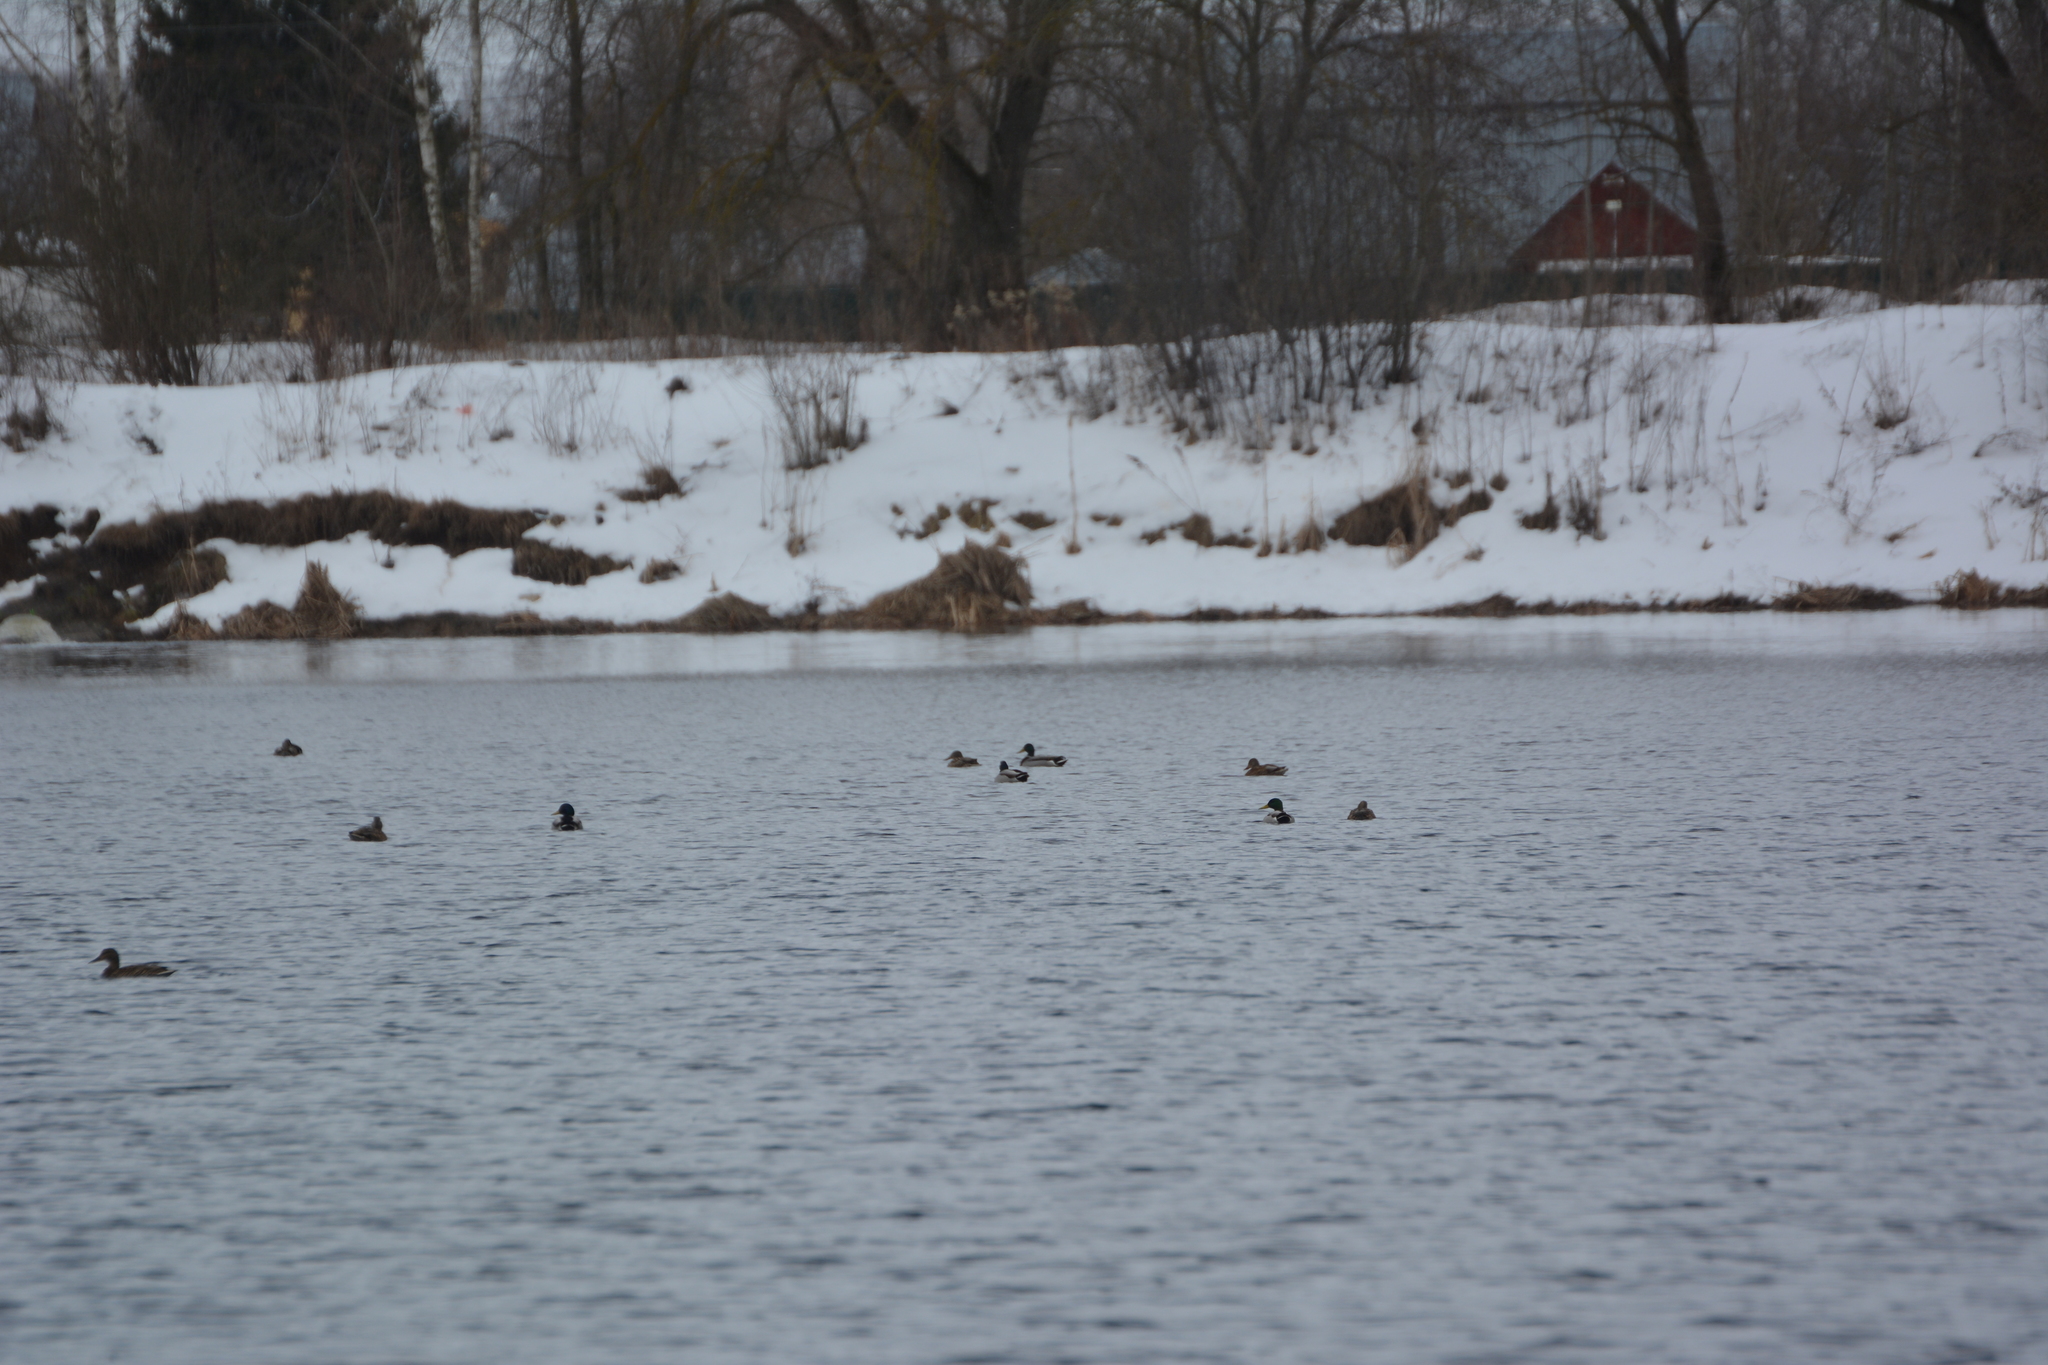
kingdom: Animalia
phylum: Chordata
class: Aves
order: Anseriformes
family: Anatidae
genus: Anas
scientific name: Anas platyrhynchos
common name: Mallard
